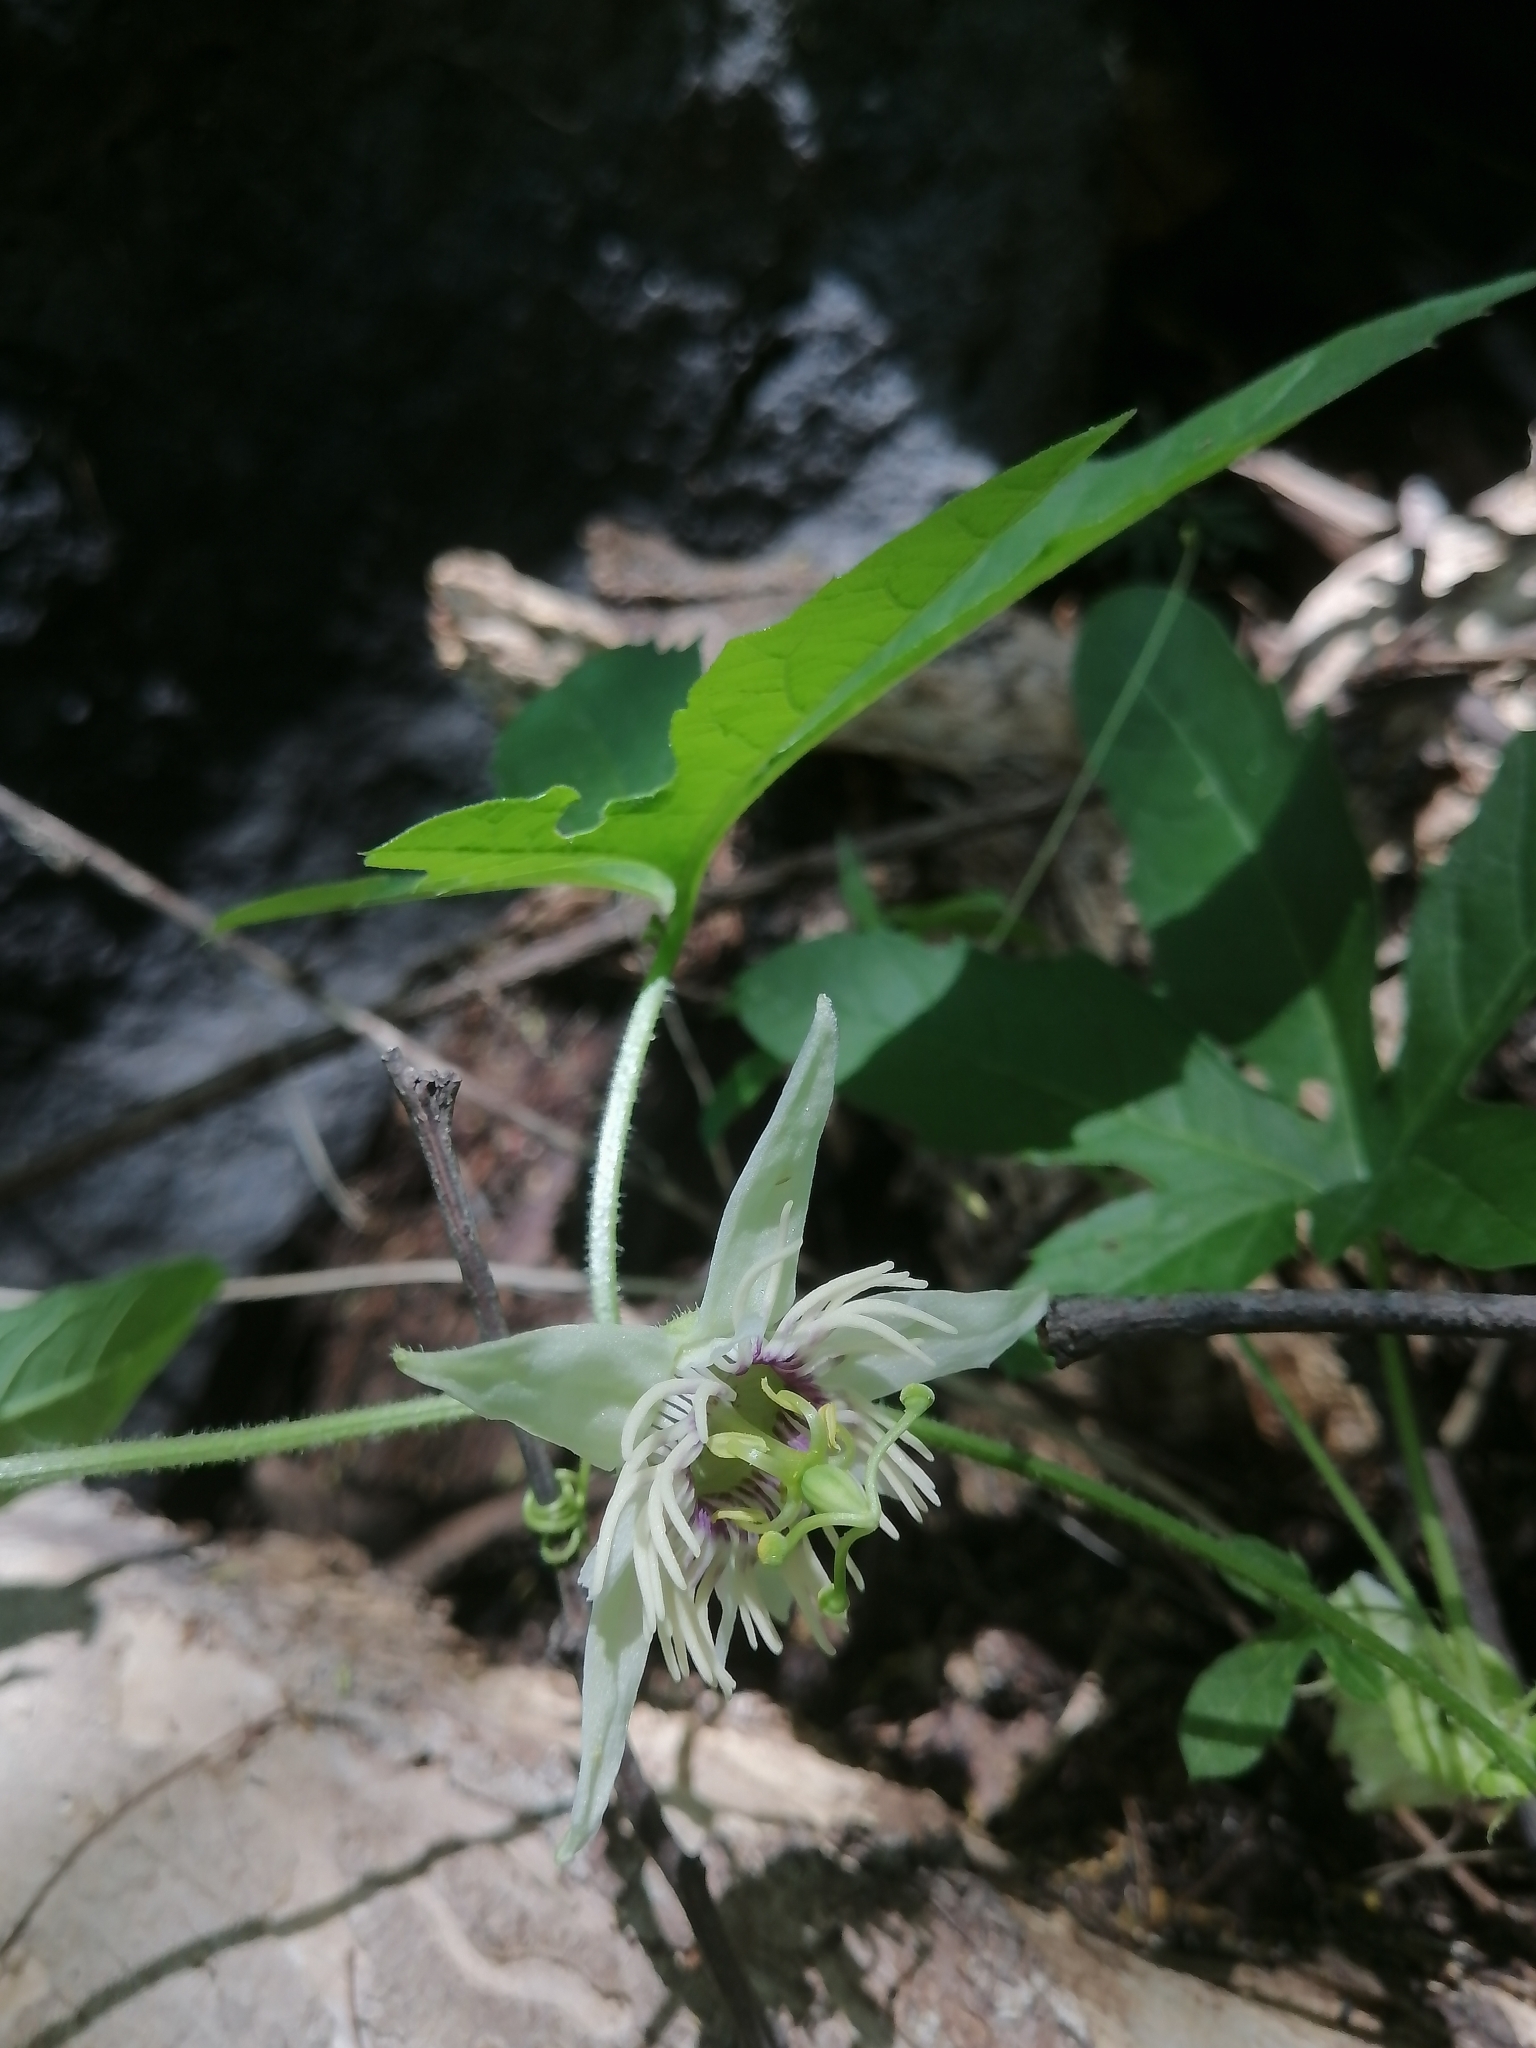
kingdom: Plantae
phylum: Tracheophyta
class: Magnoliopsida
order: Malpighiales
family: Passifloraceae
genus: Passiflora
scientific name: Passiflora bryonioides
